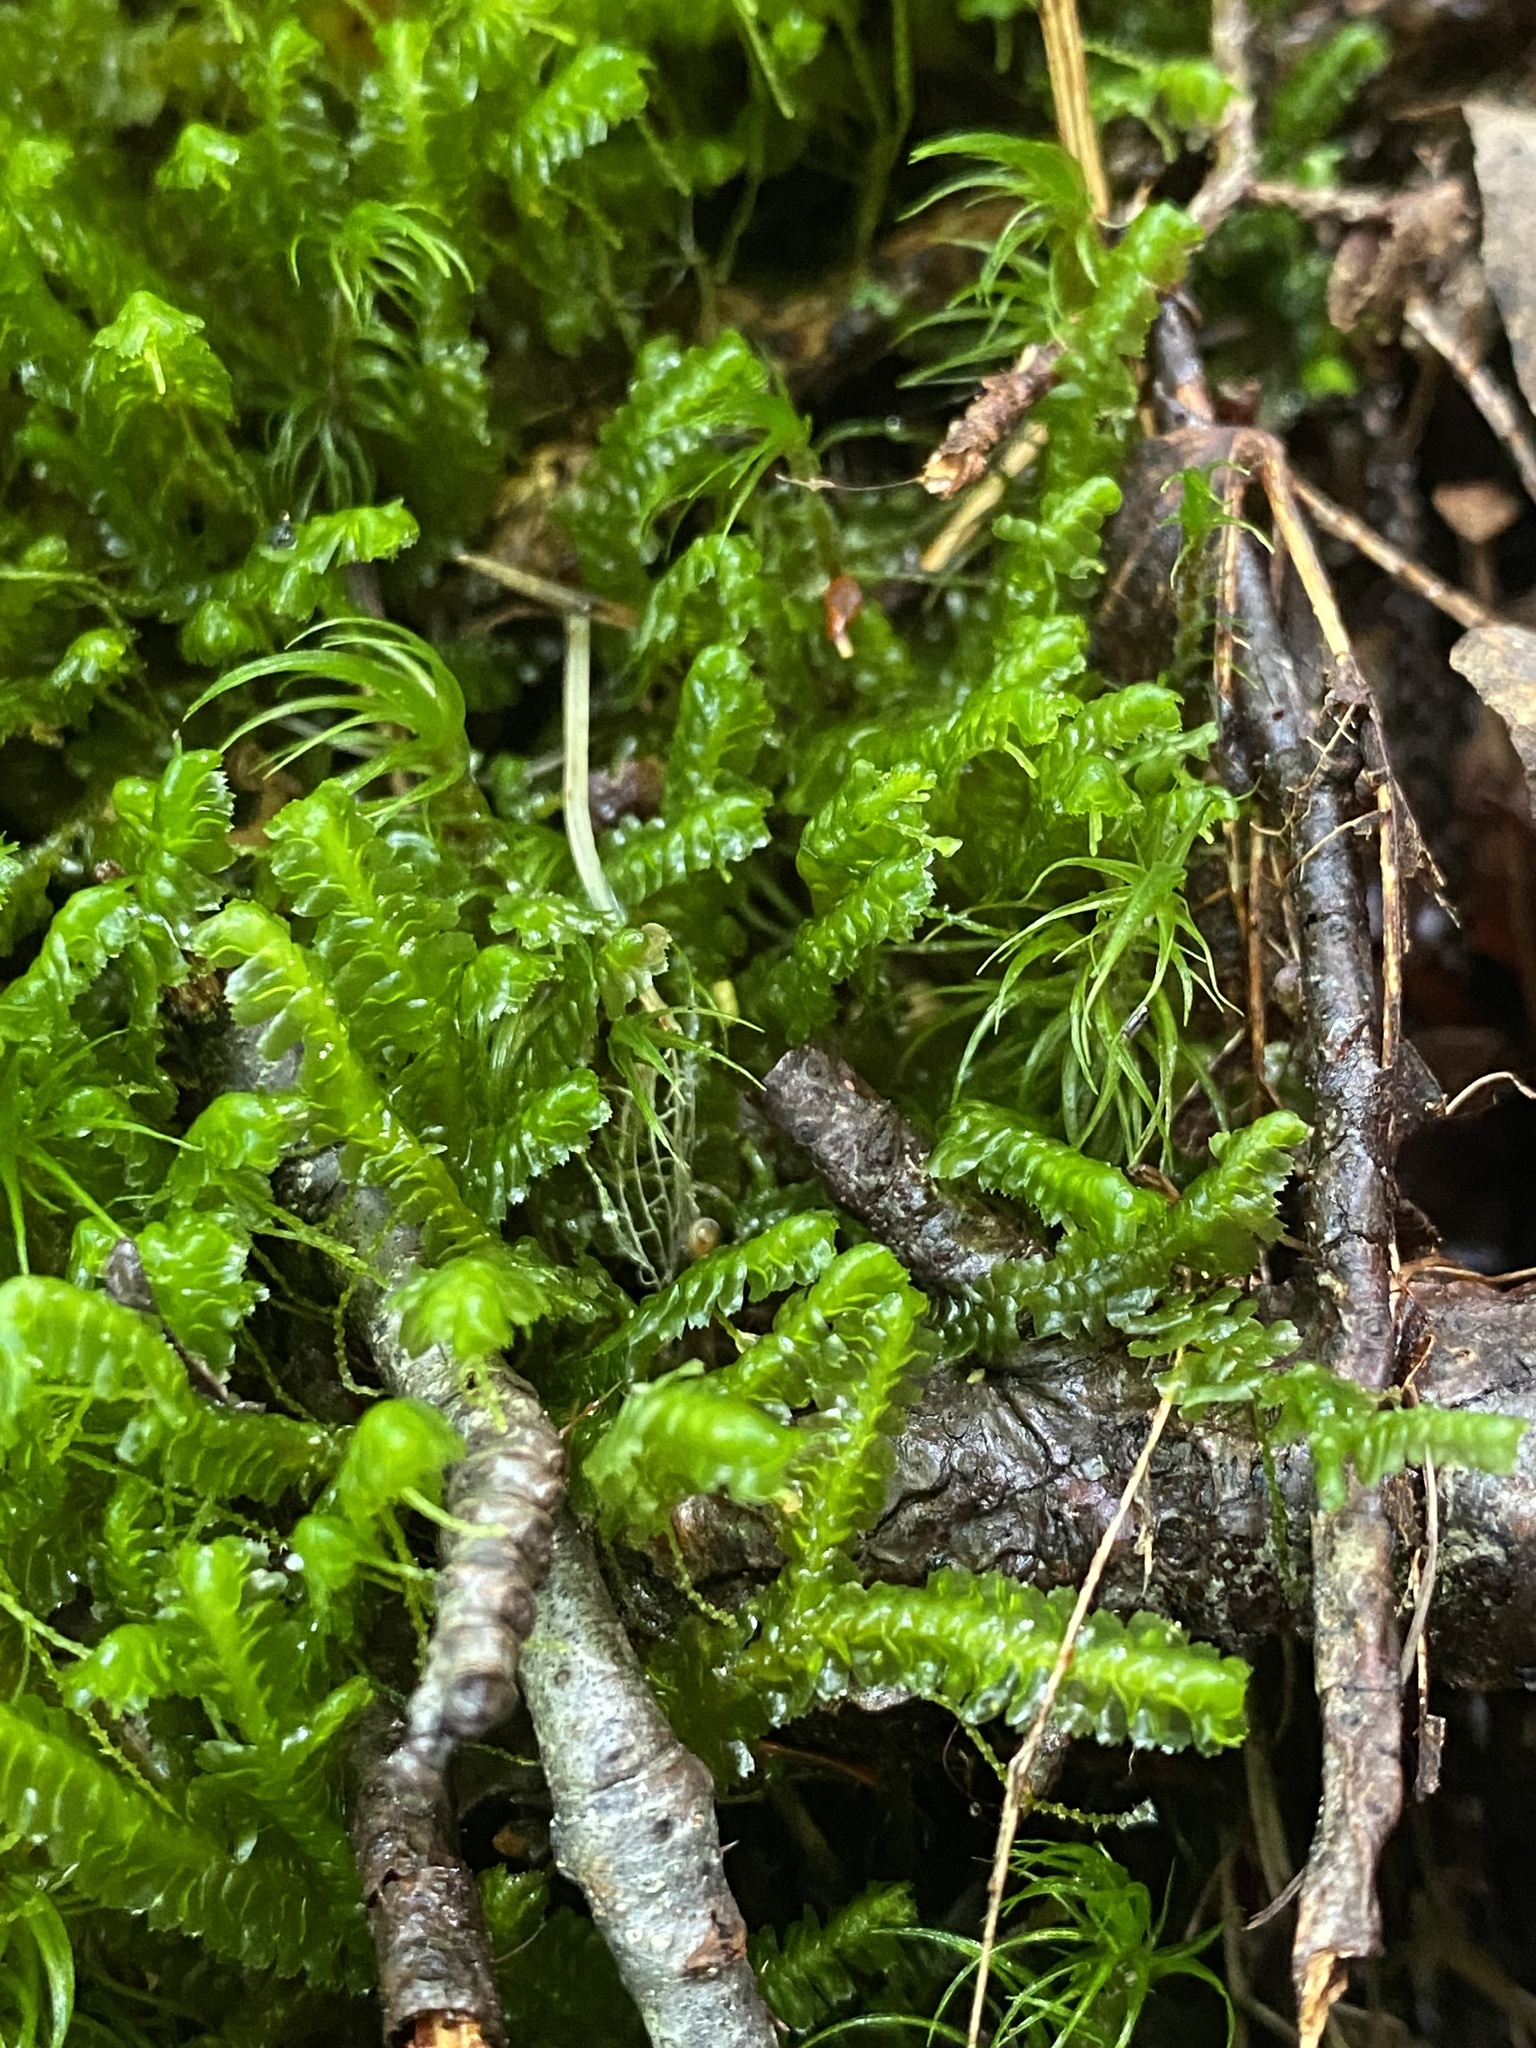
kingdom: Plantae
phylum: Marchantiophyta
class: Jungermanniopsida
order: Jungermanniales
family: Lepidoziaceae
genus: Bazzania
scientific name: Bazzania trilobata
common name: Three-lobed whipwort
